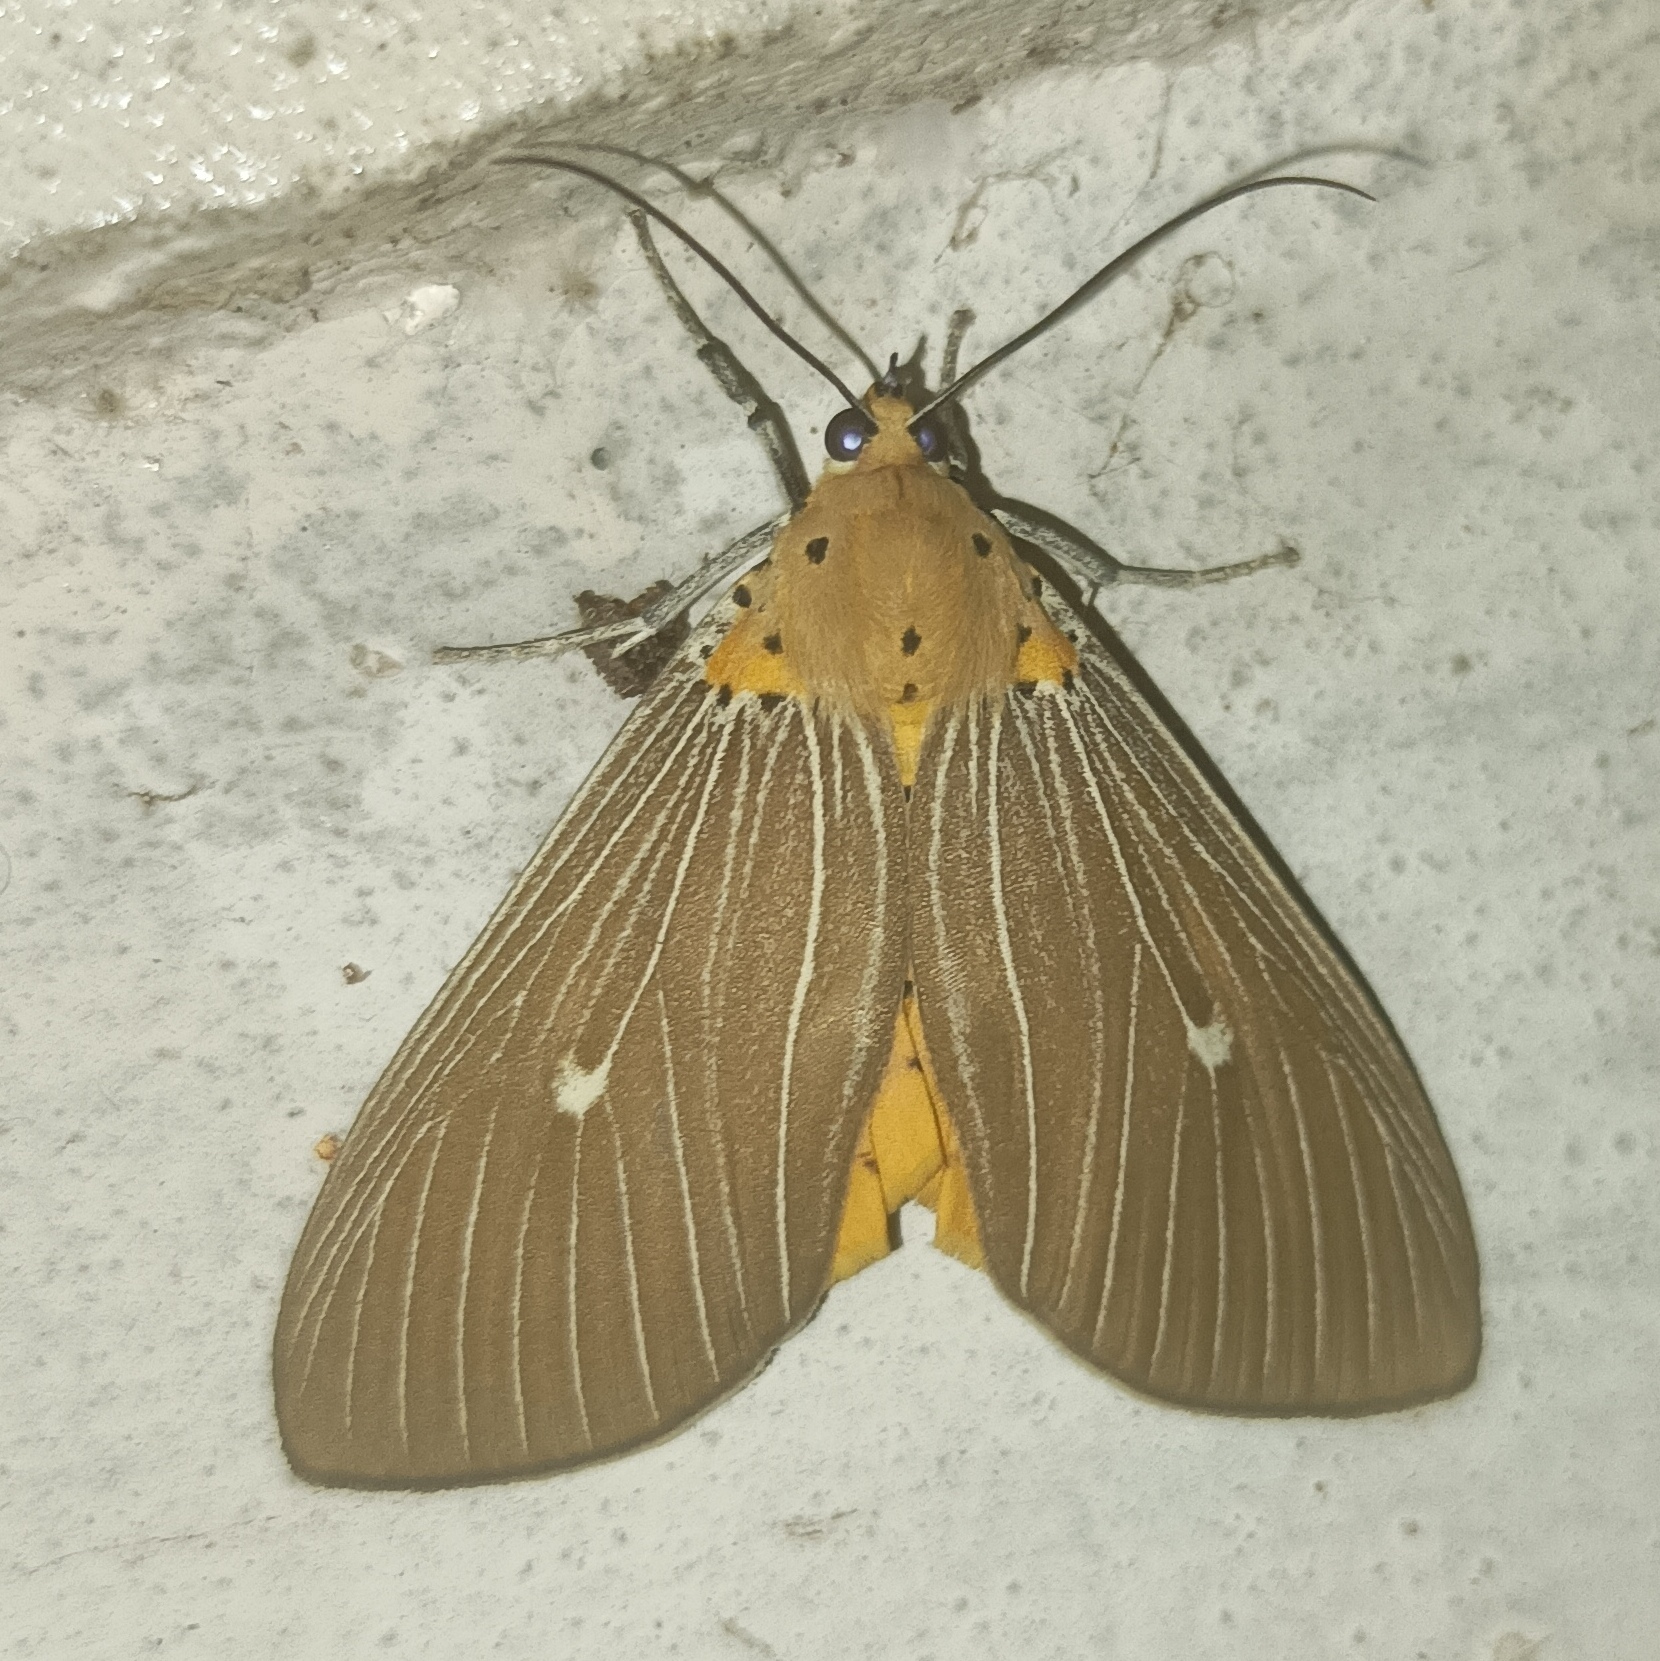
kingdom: Animalia
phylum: Arthropoda
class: Insecta
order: Lepidoptera
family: Erebidae
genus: Asota
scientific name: Asota caricae
